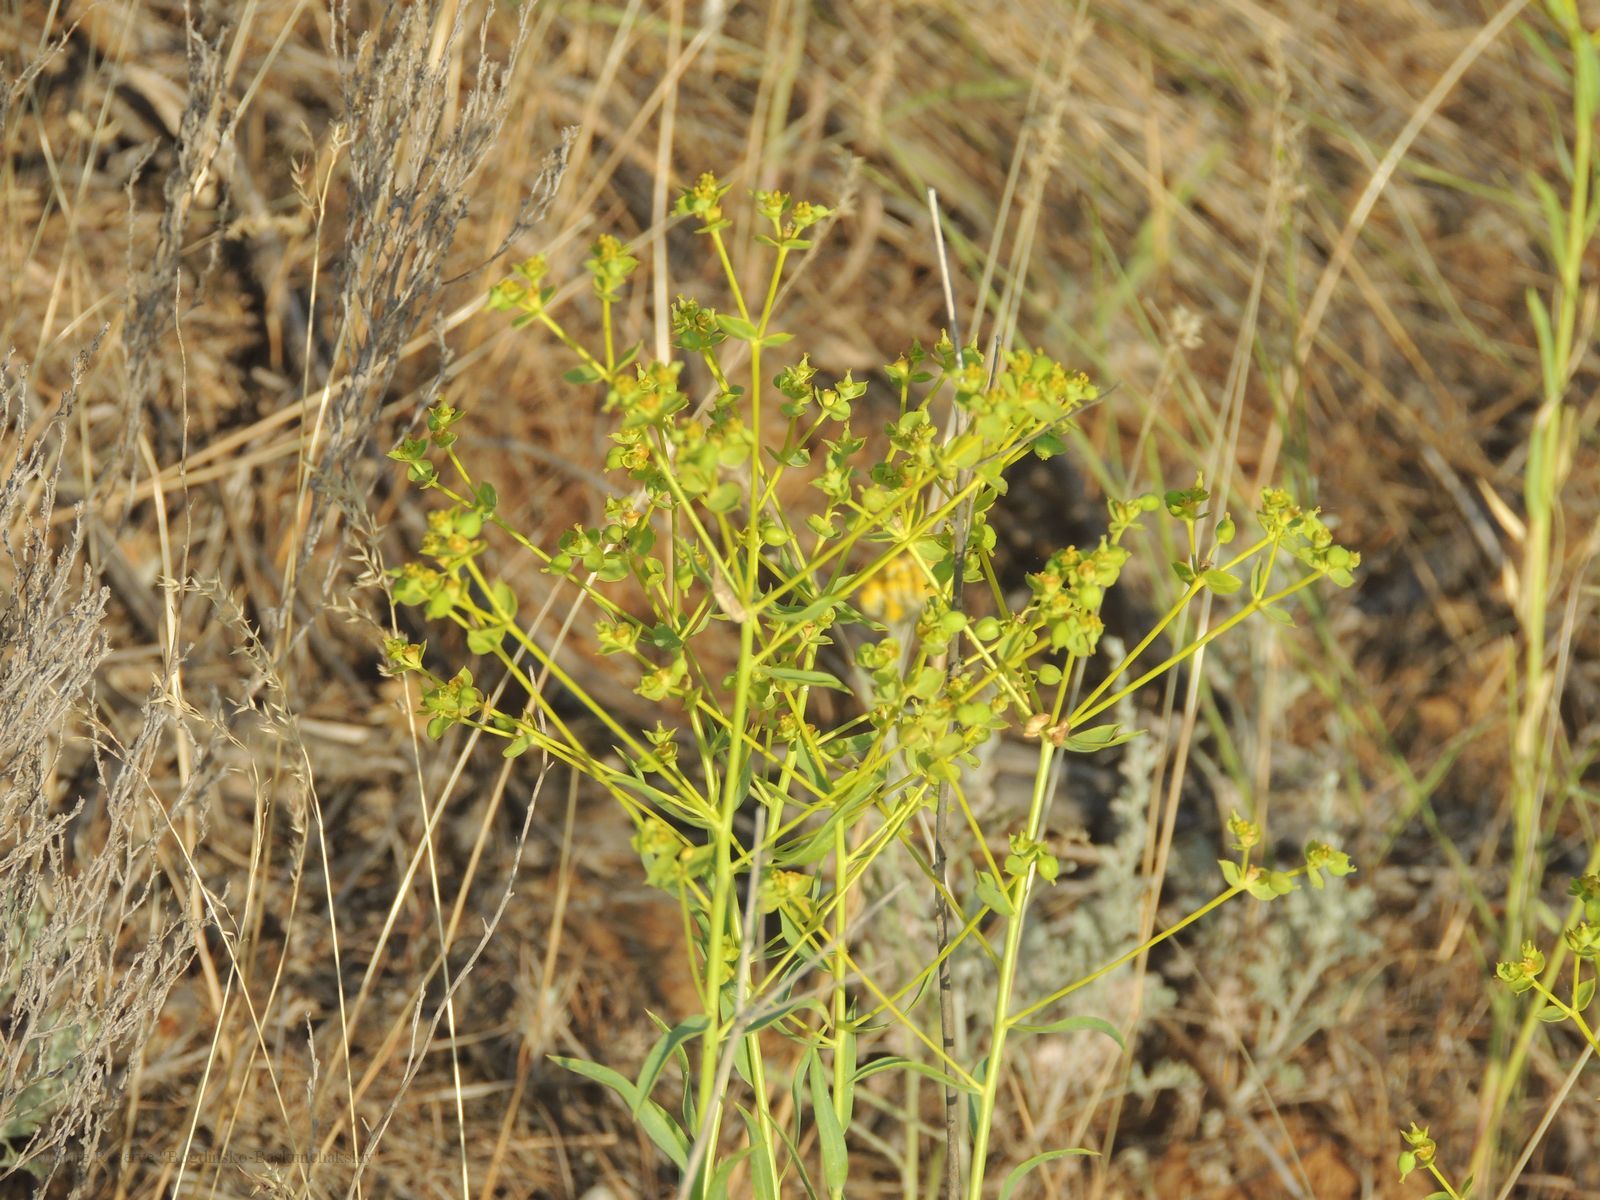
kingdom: Plantae
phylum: Tracheophyta
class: Magnoliopsida
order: Malpighiales
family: Euphorbiaceae
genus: Euphorbia
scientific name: Euphorbia seguieriana
